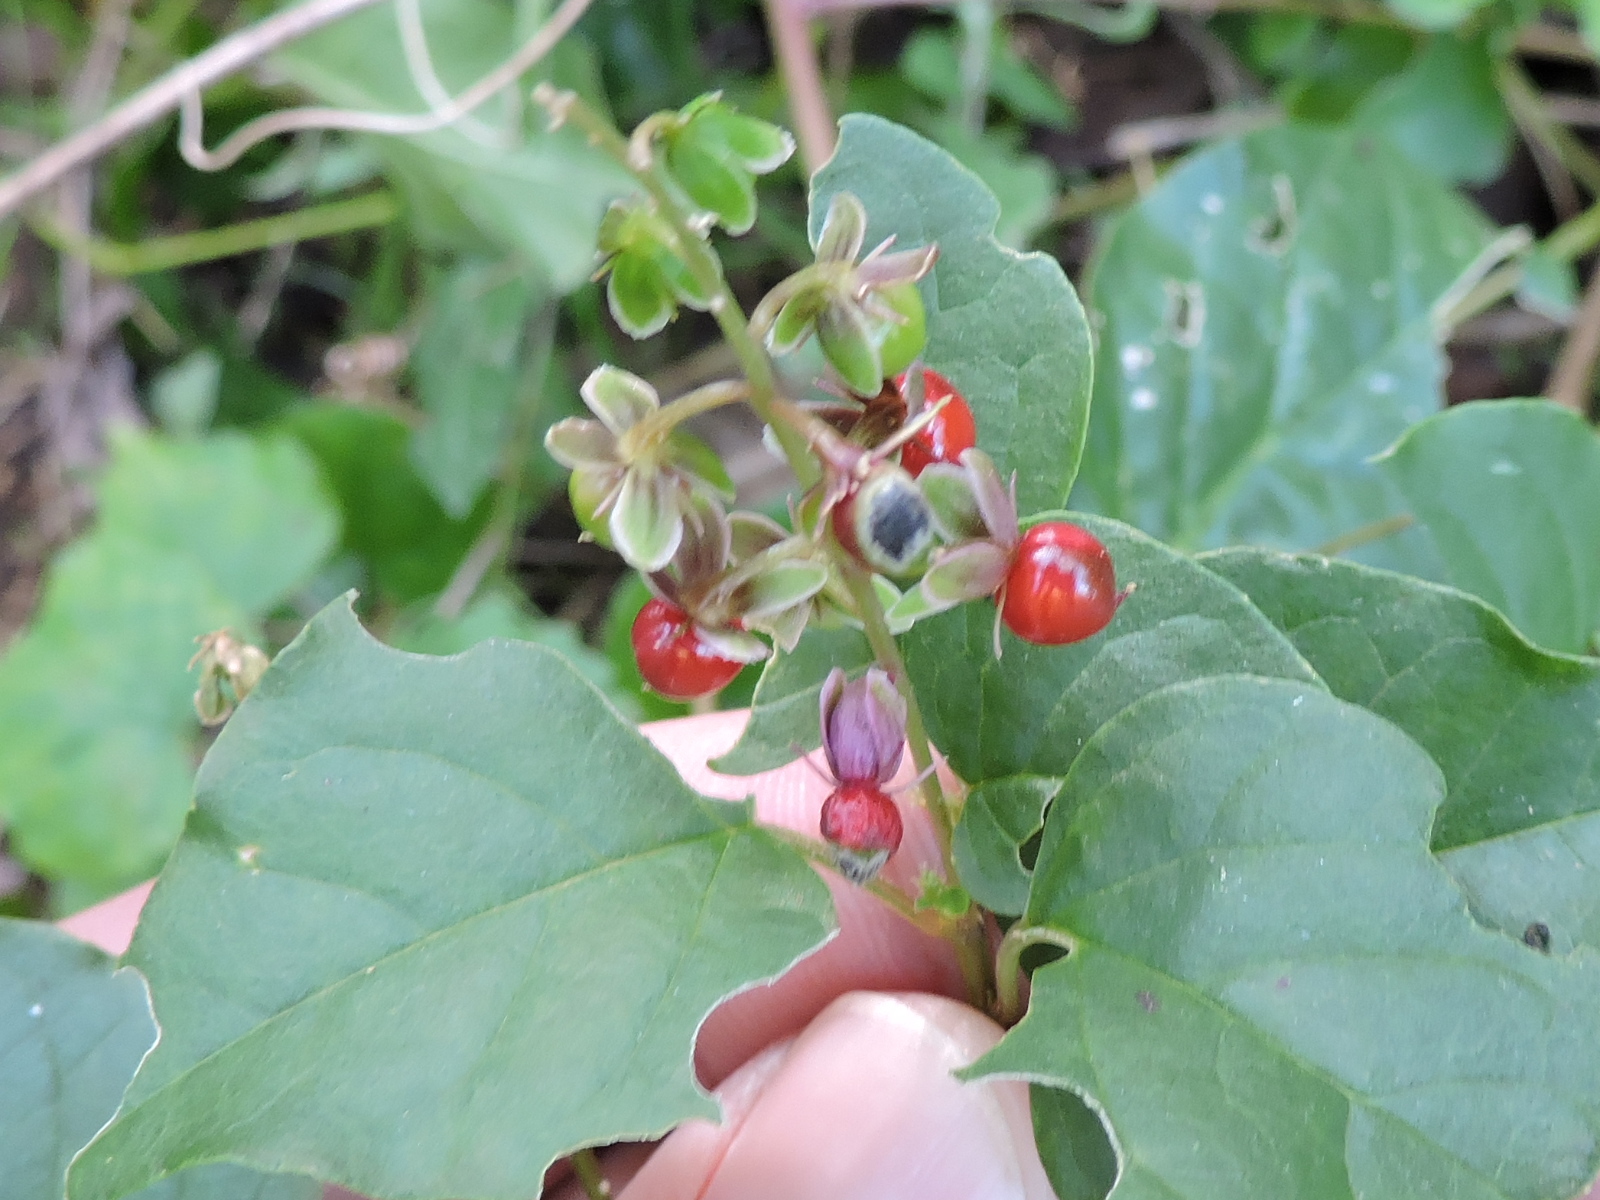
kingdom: Plantae
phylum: Tracheophyta
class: Magnoliopsida
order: Caryophyllales
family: Phytolaccaceae
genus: Rivina
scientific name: Rivina humilis
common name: Rougeplant
